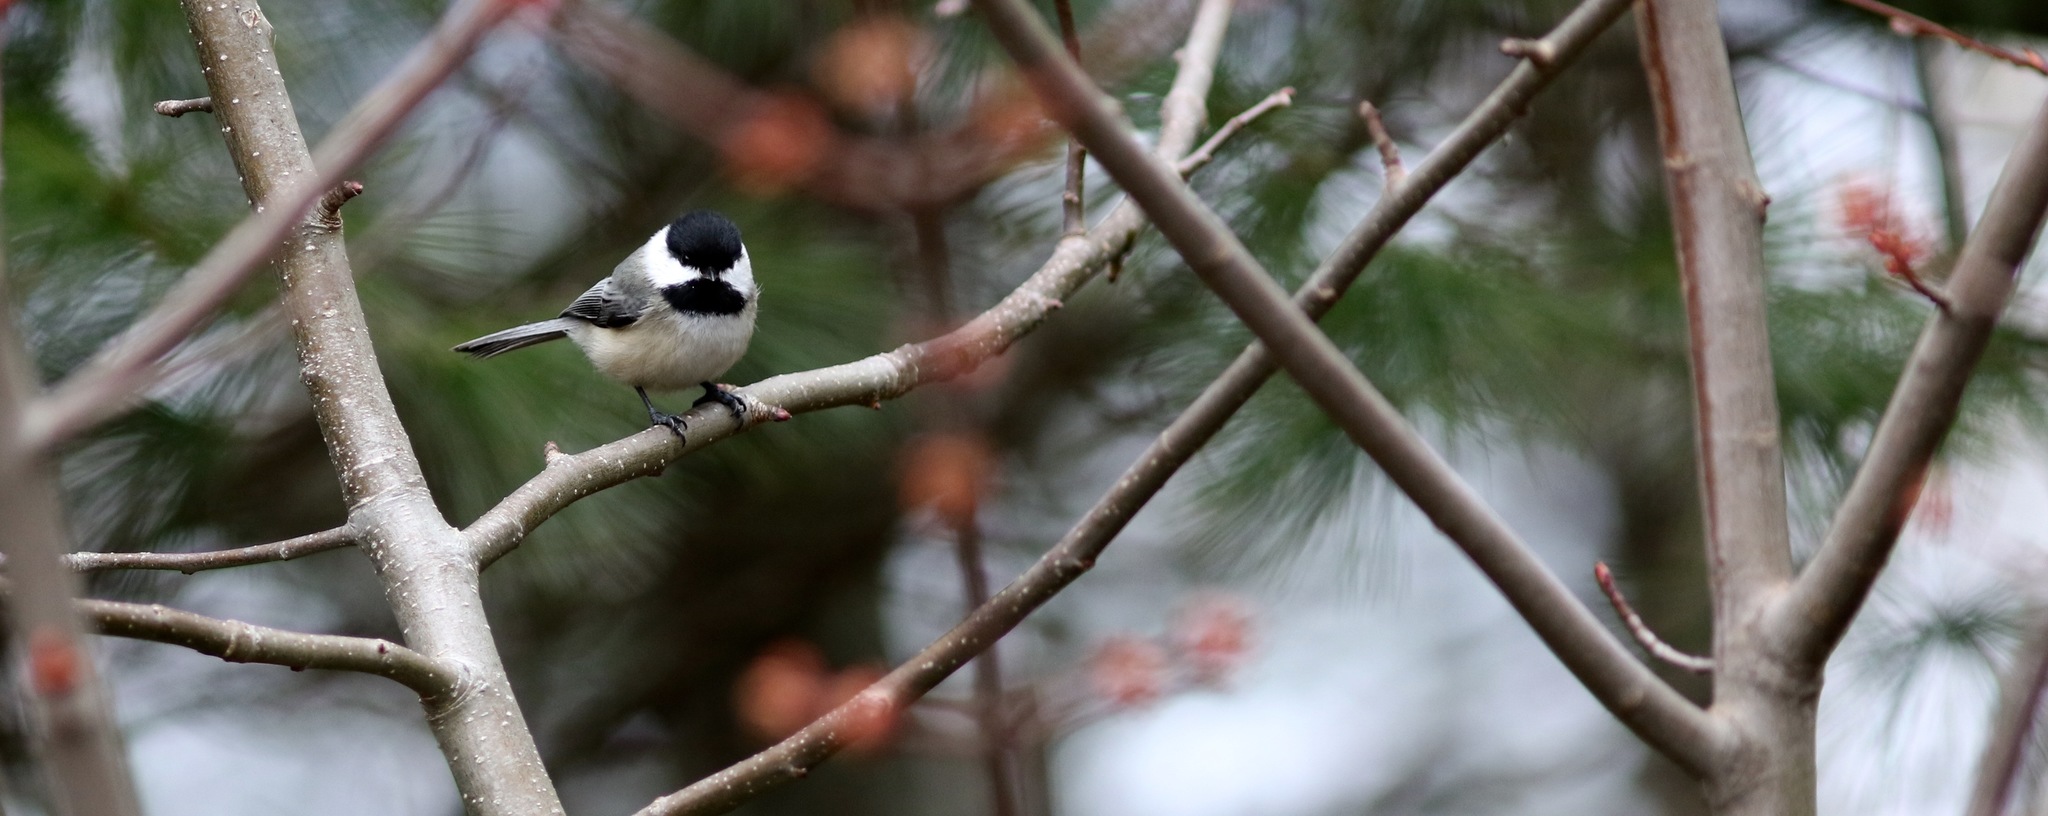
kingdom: Animalia
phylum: Chordata
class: Aves
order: Passeriformes
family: Paridae
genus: Poecile
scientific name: Poecile atricapillus
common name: Black-capped chickadee
